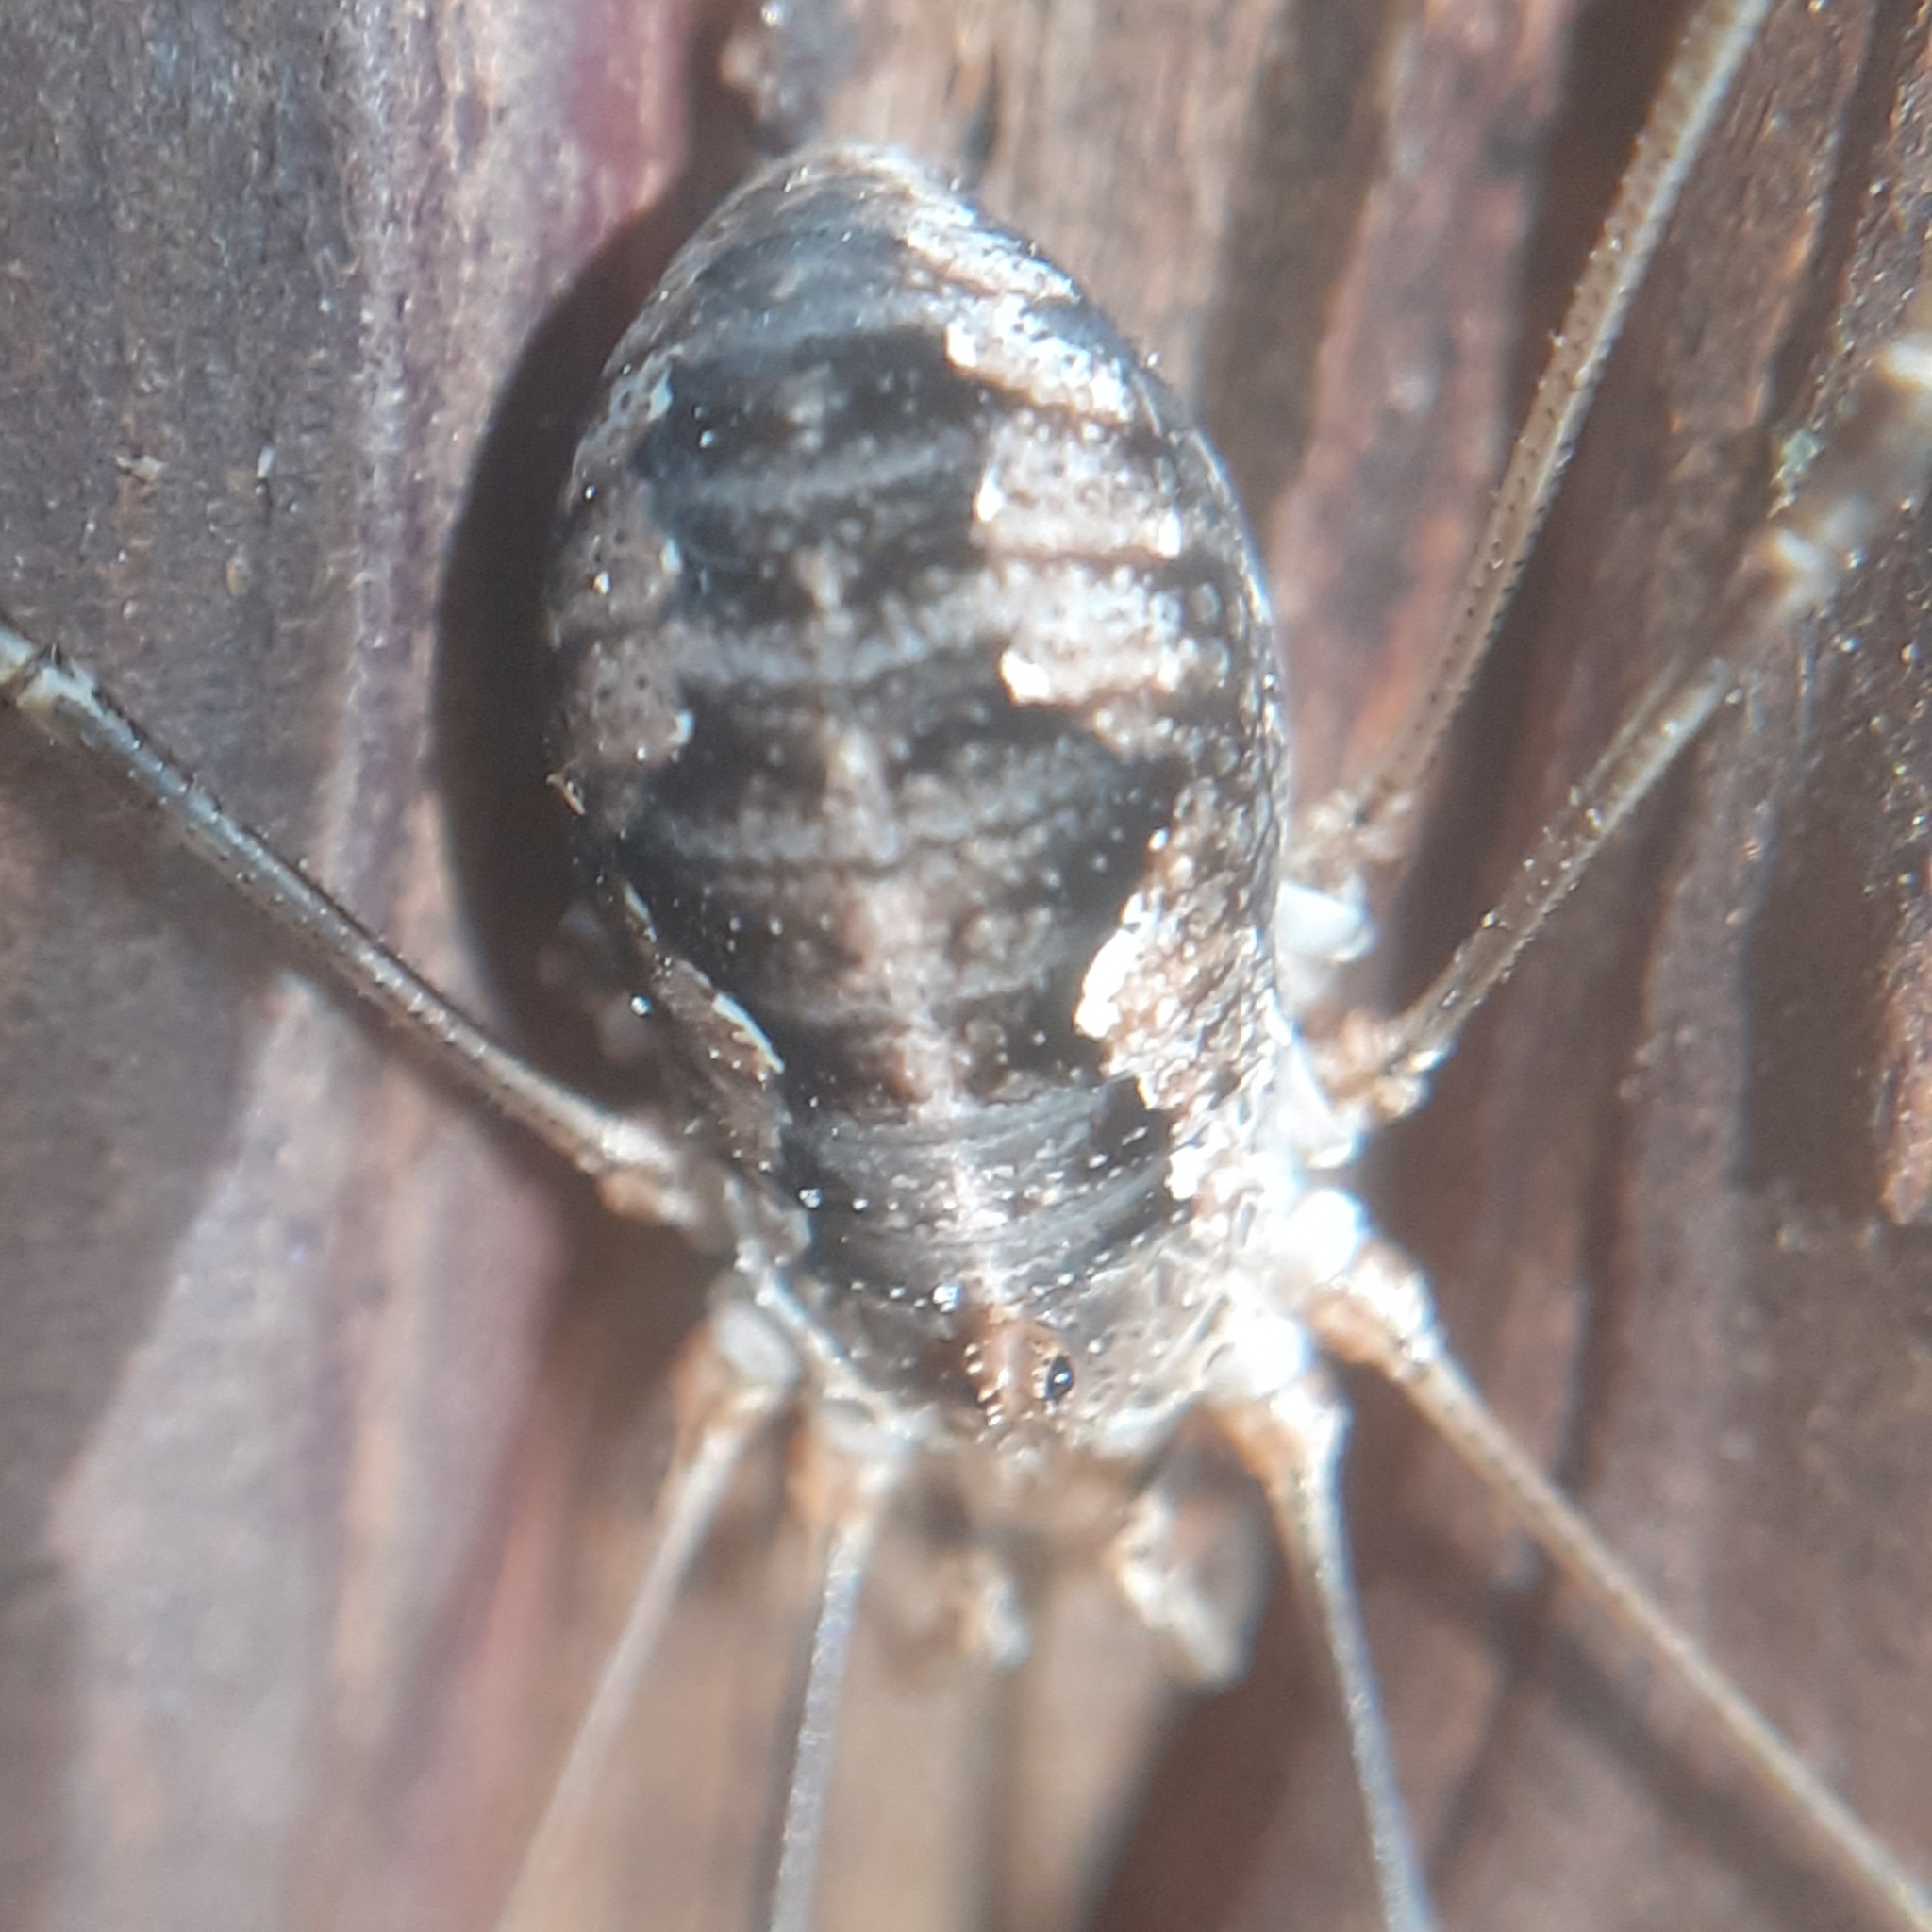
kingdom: Animalia
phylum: Arthropoda
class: Arachnida
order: Opiliones
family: Phalangiidae
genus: Phalangium
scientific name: Phalangium opilio
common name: Daddy longleg
